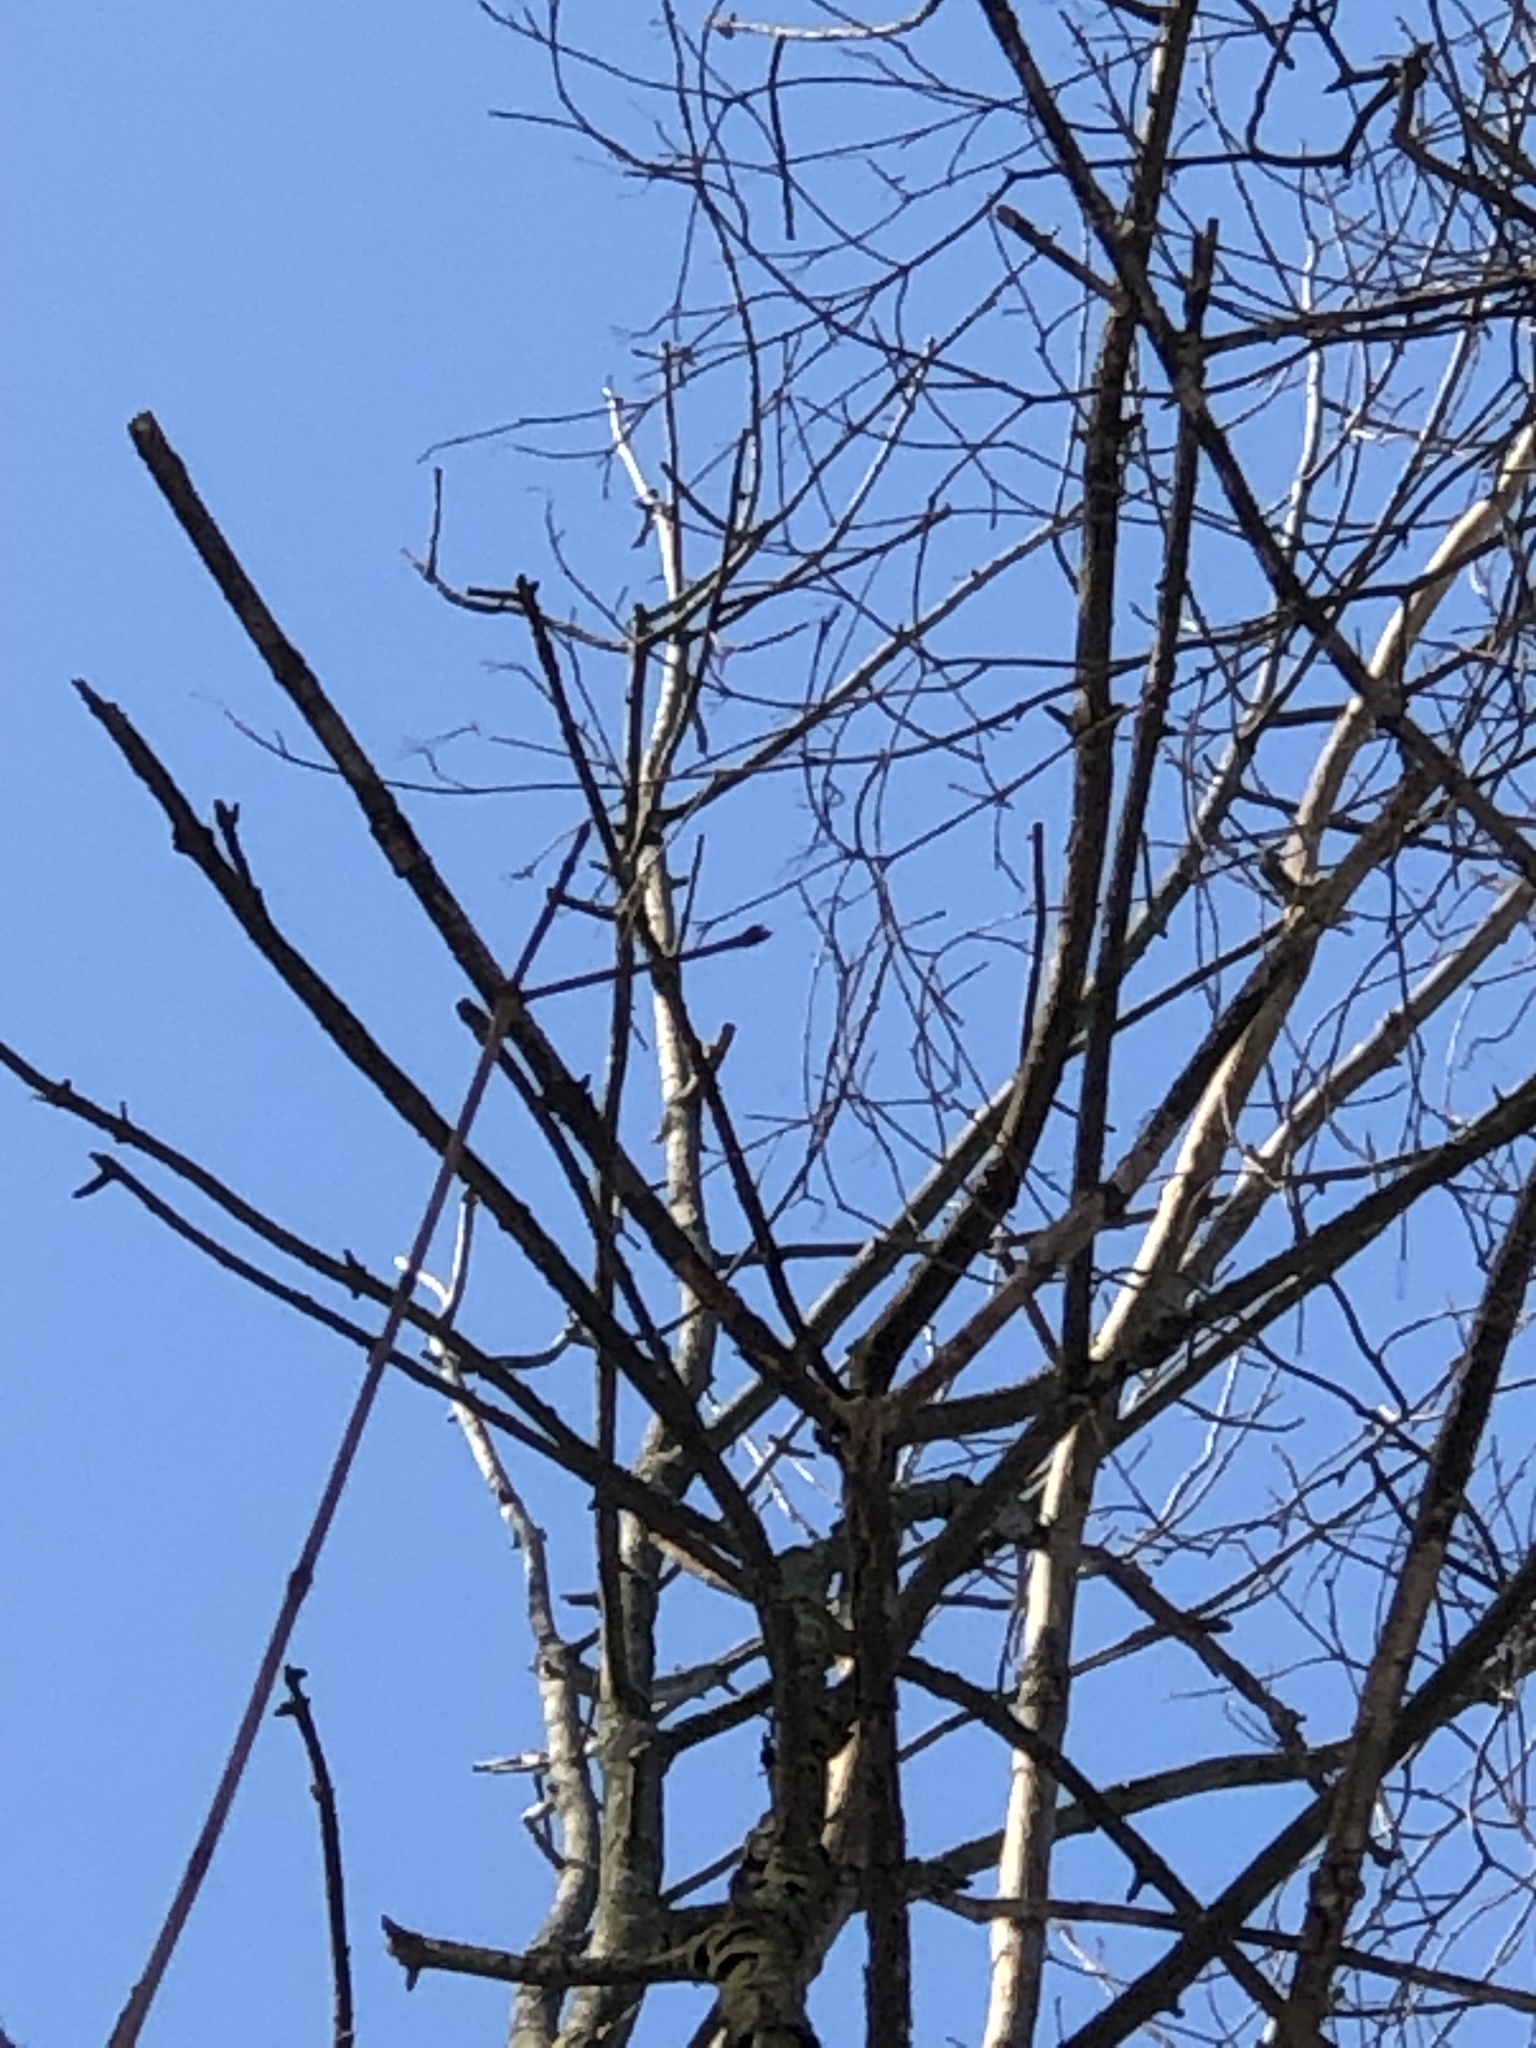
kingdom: Animalia
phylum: Chordata
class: Aves
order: Passeriformes
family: Sittidae
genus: Sitta
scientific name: Sitta carolinensis
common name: White-breasted nuthatch
